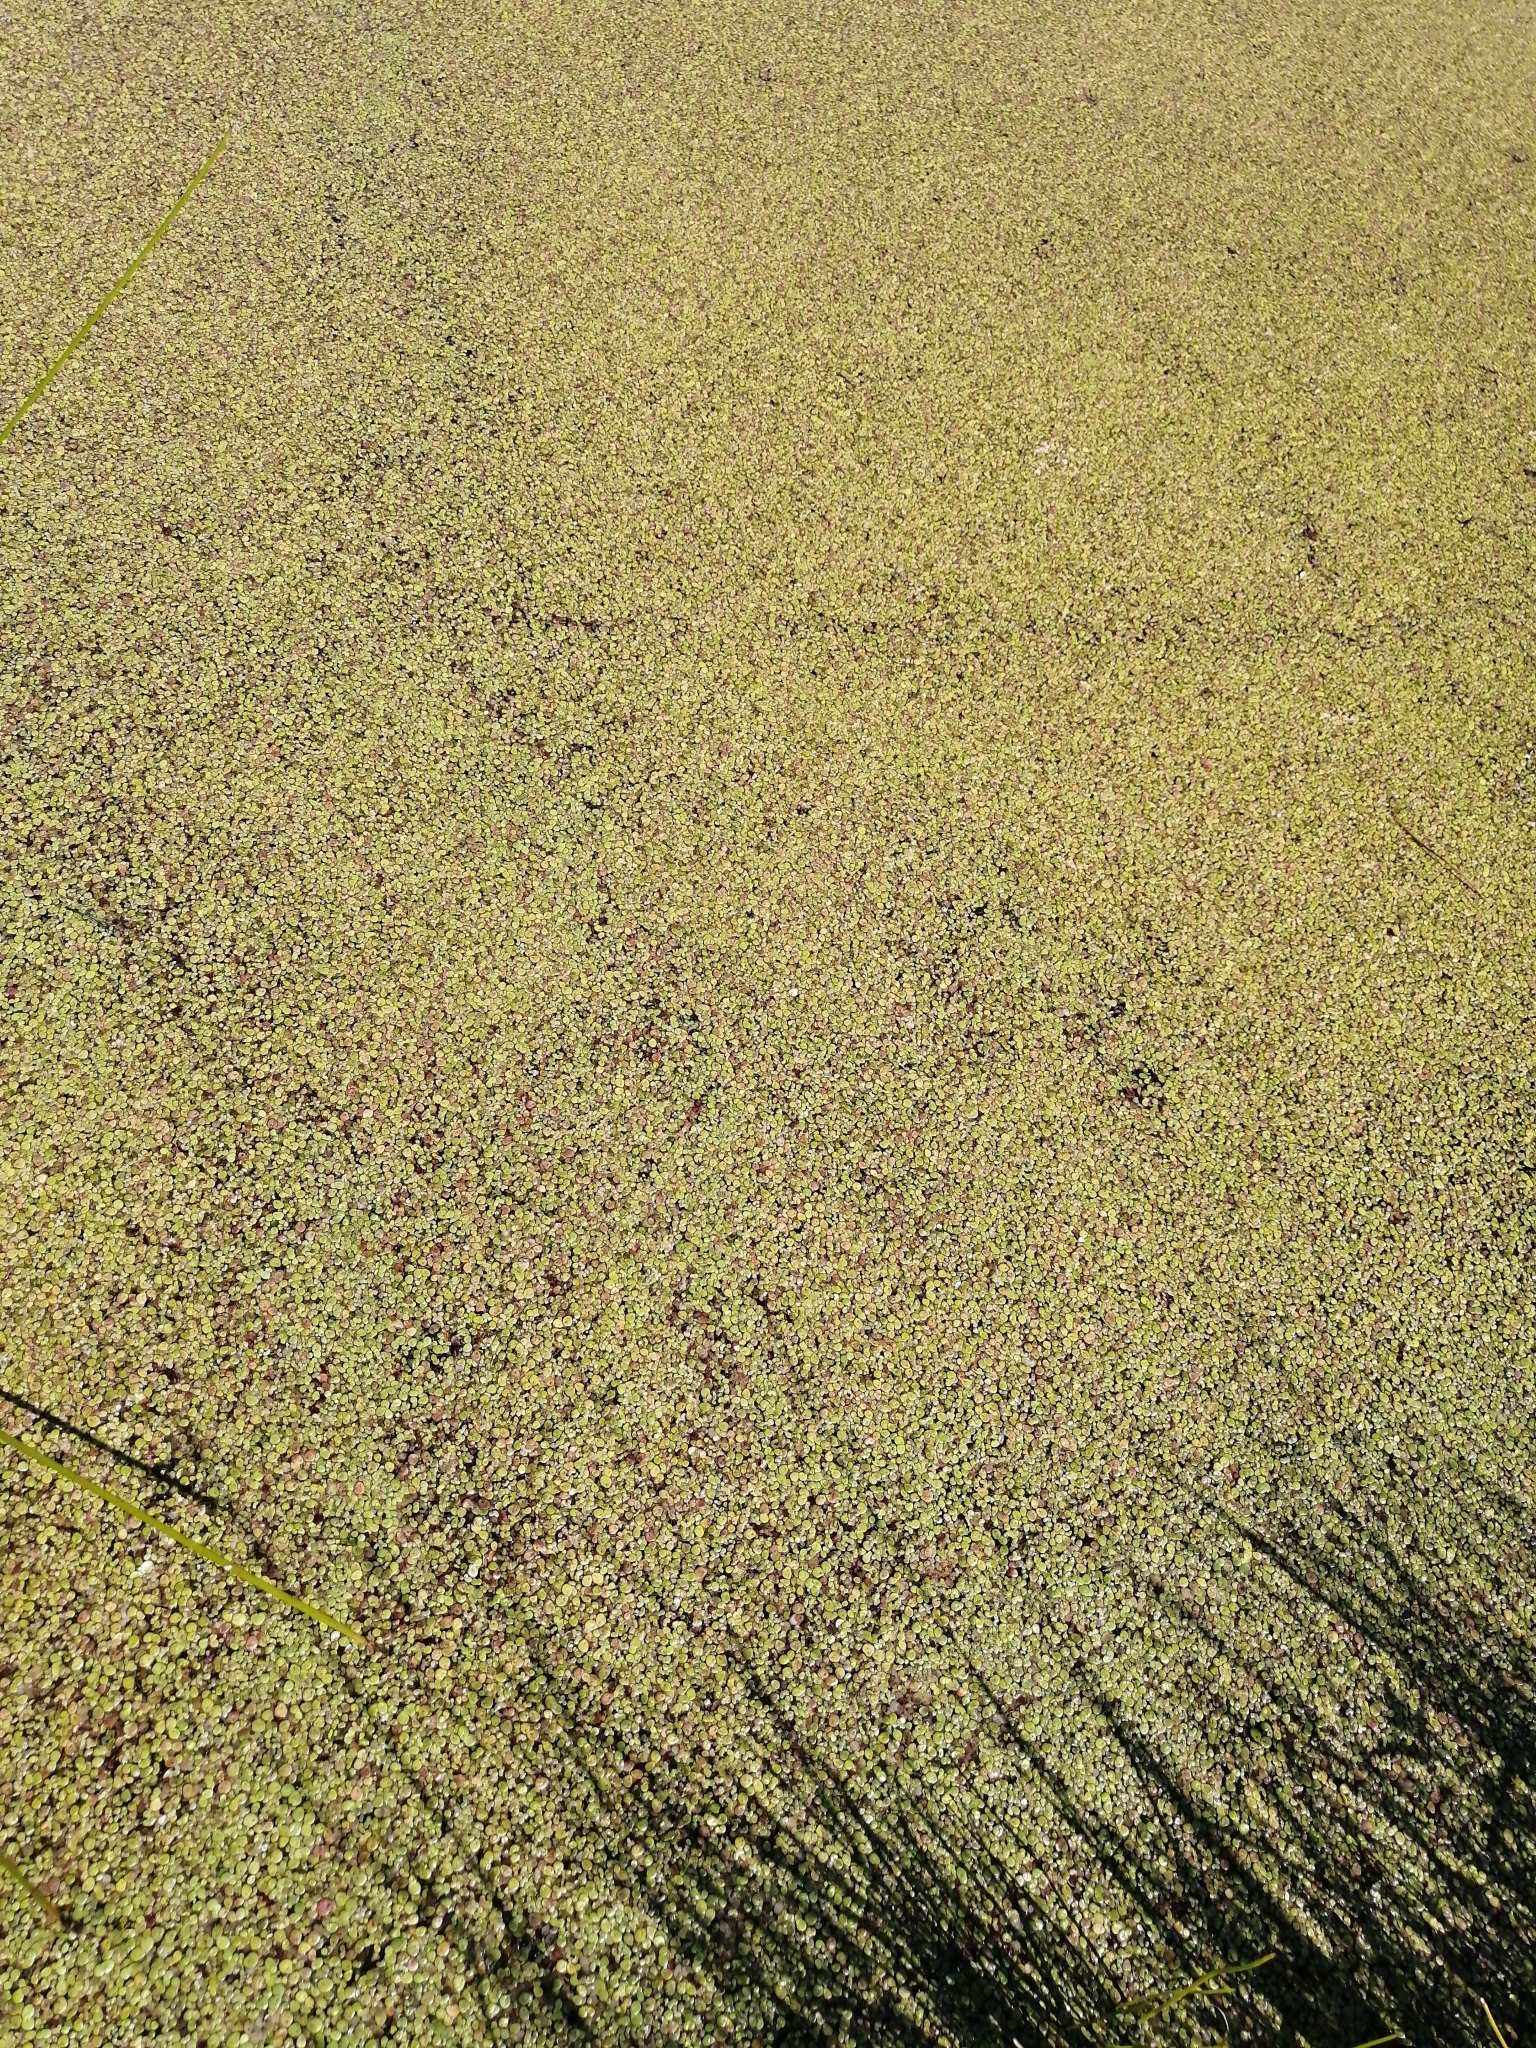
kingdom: Plantae
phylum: Tracheophyta
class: Liliopsida
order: Alismatales
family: Araceae
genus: Lemna
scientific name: Lemna minor
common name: Common duckweed
